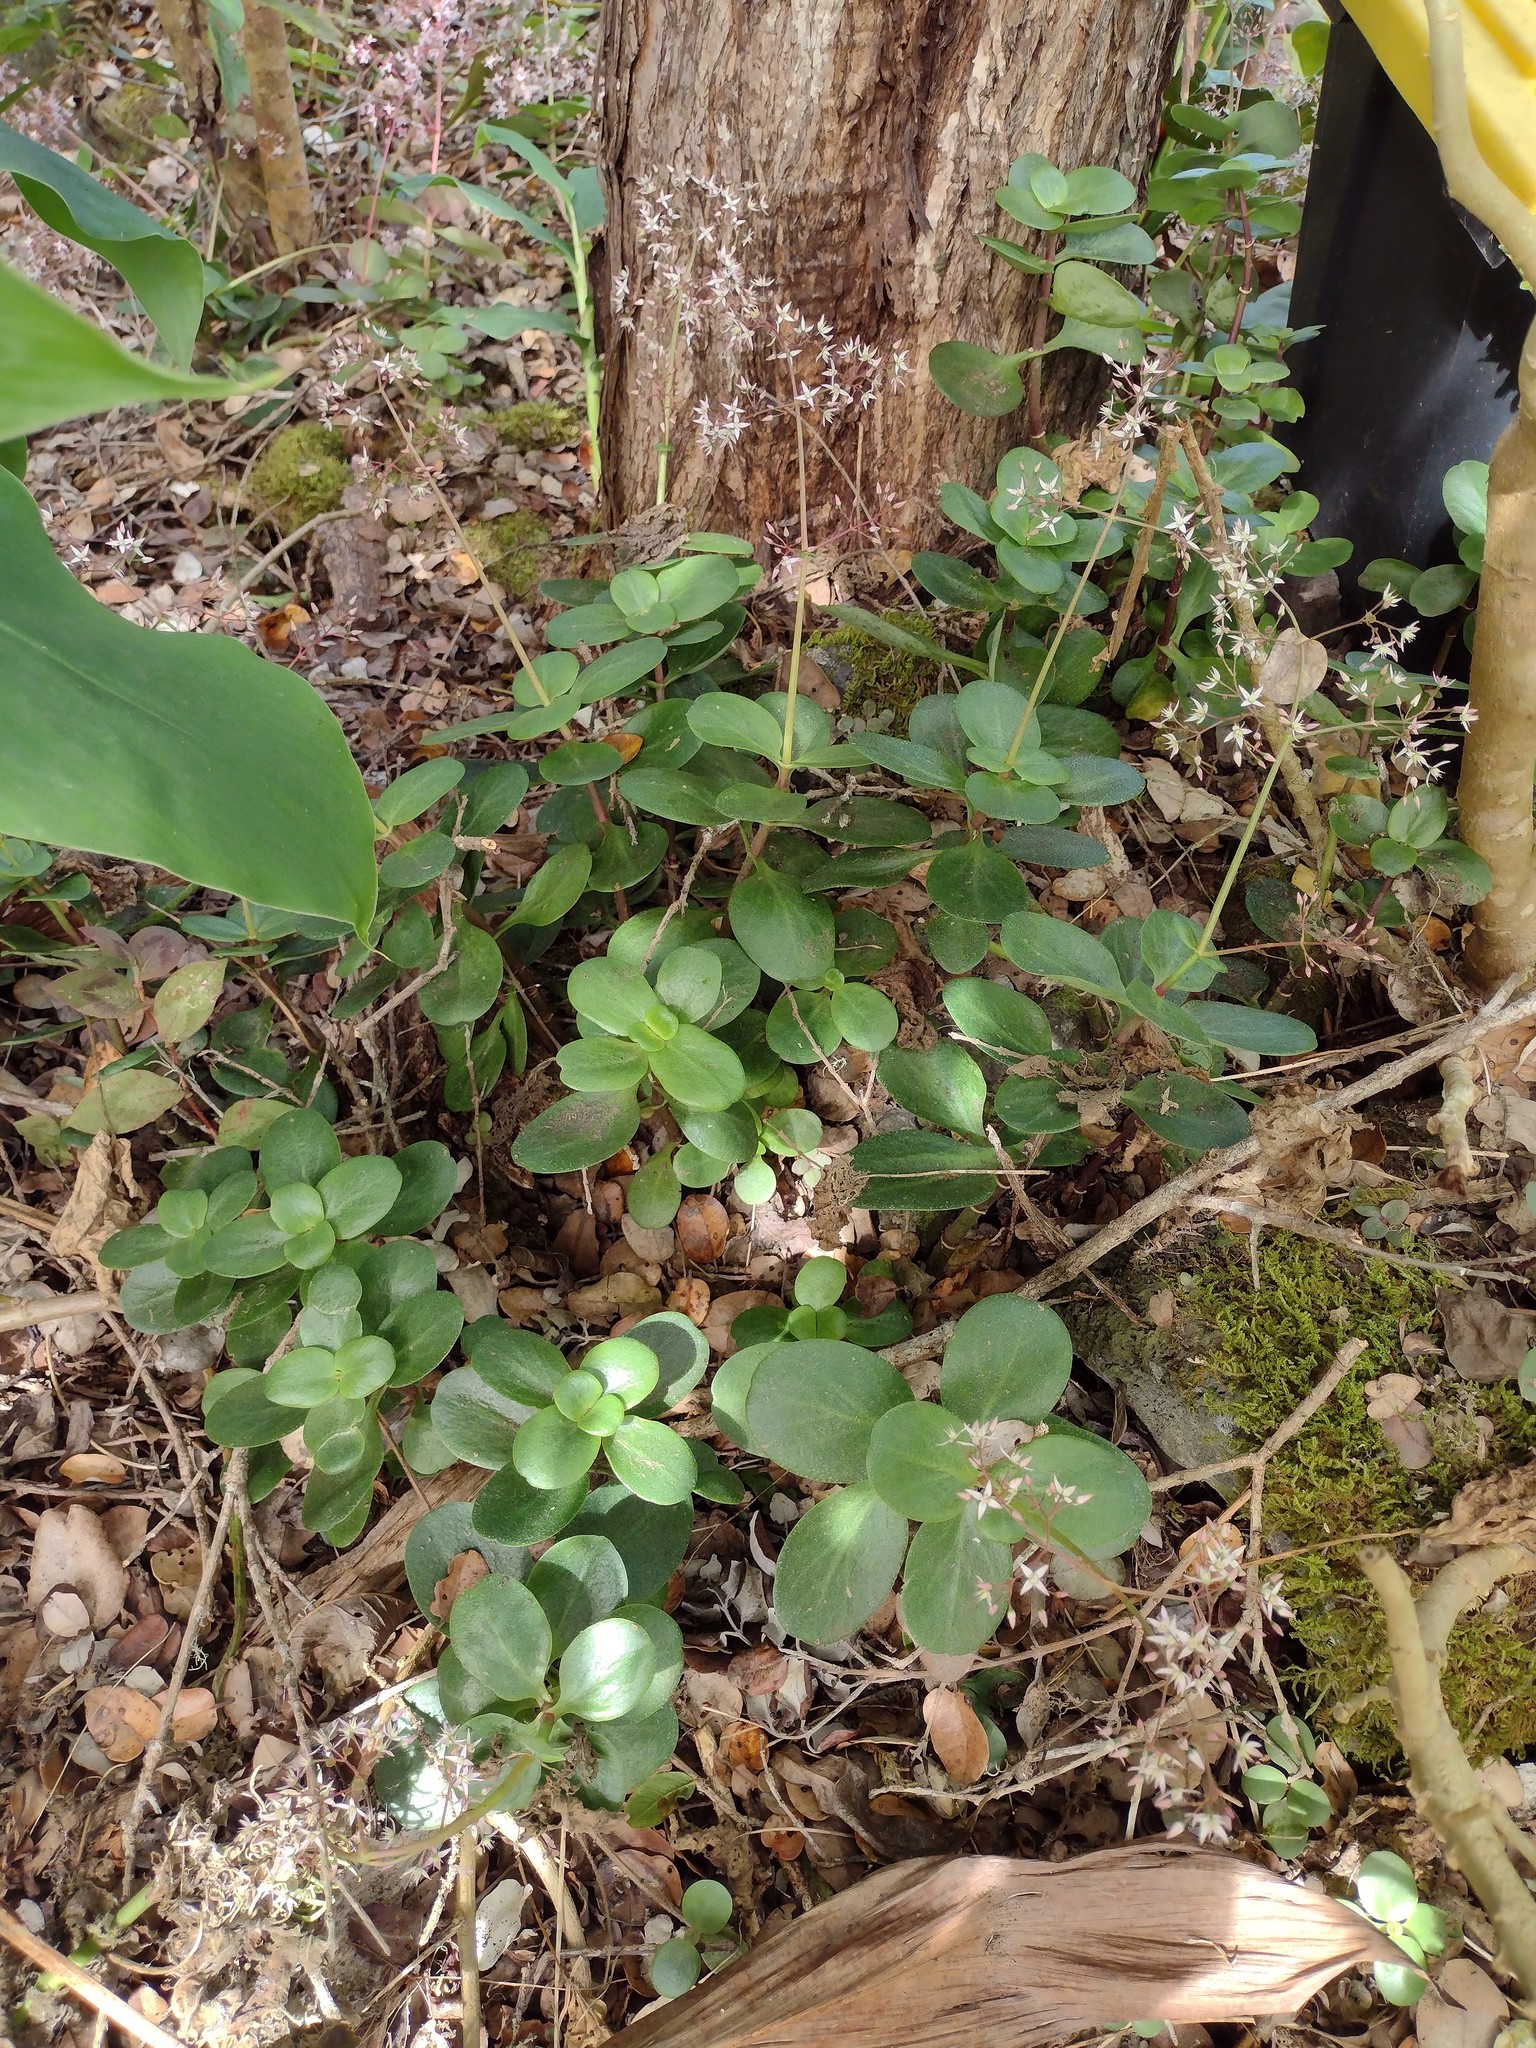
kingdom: Plantae
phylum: Tracheophyta
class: Magnoliopsida
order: Saxifragales
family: Crassulaceae
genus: Crassula
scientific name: Crassula multicava
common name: Cape province pygmyweed
